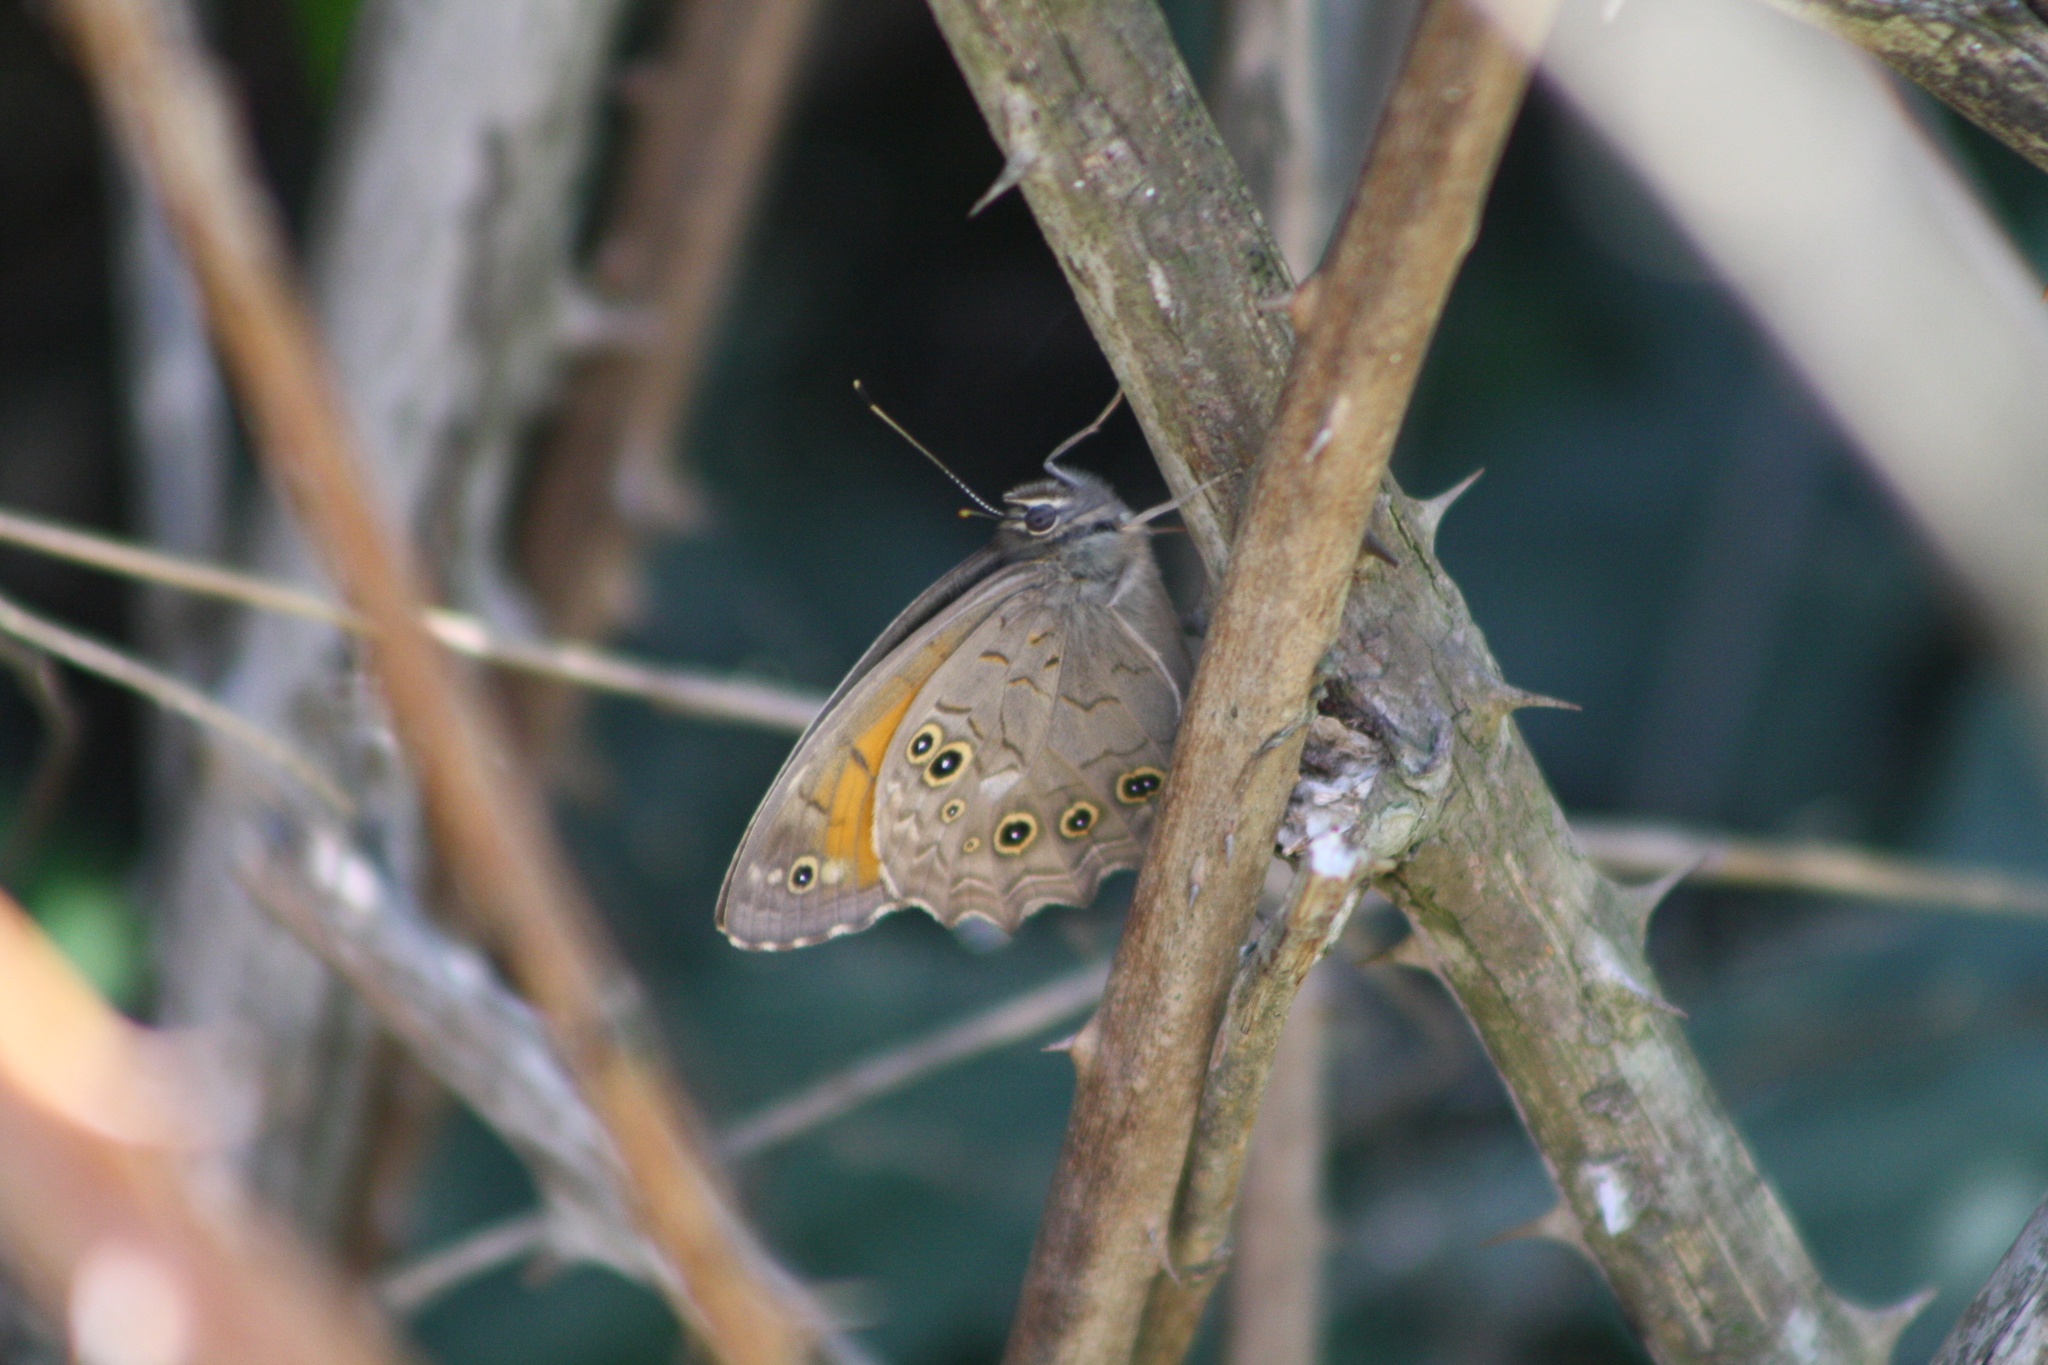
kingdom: Animalia
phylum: Arthropoda
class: Insecta
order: Lepidoptera
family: Nymphalidae
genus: Kirinia
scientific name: Kirinia roxelana
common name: Lattice brown
